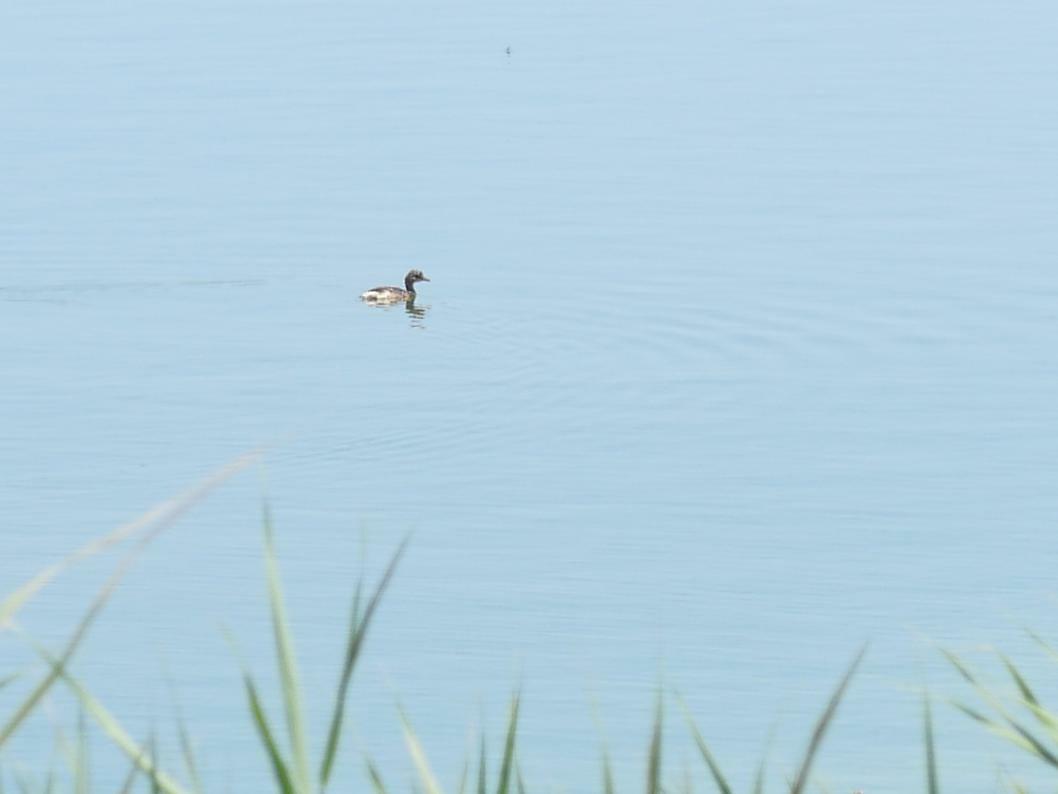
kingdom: Animalia
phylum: Chordata
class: Aves
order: Podicipediformes
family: Podicipedidae
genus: Tachybaptus
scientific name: Tachybaptus ruficollis
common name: Little grebe
